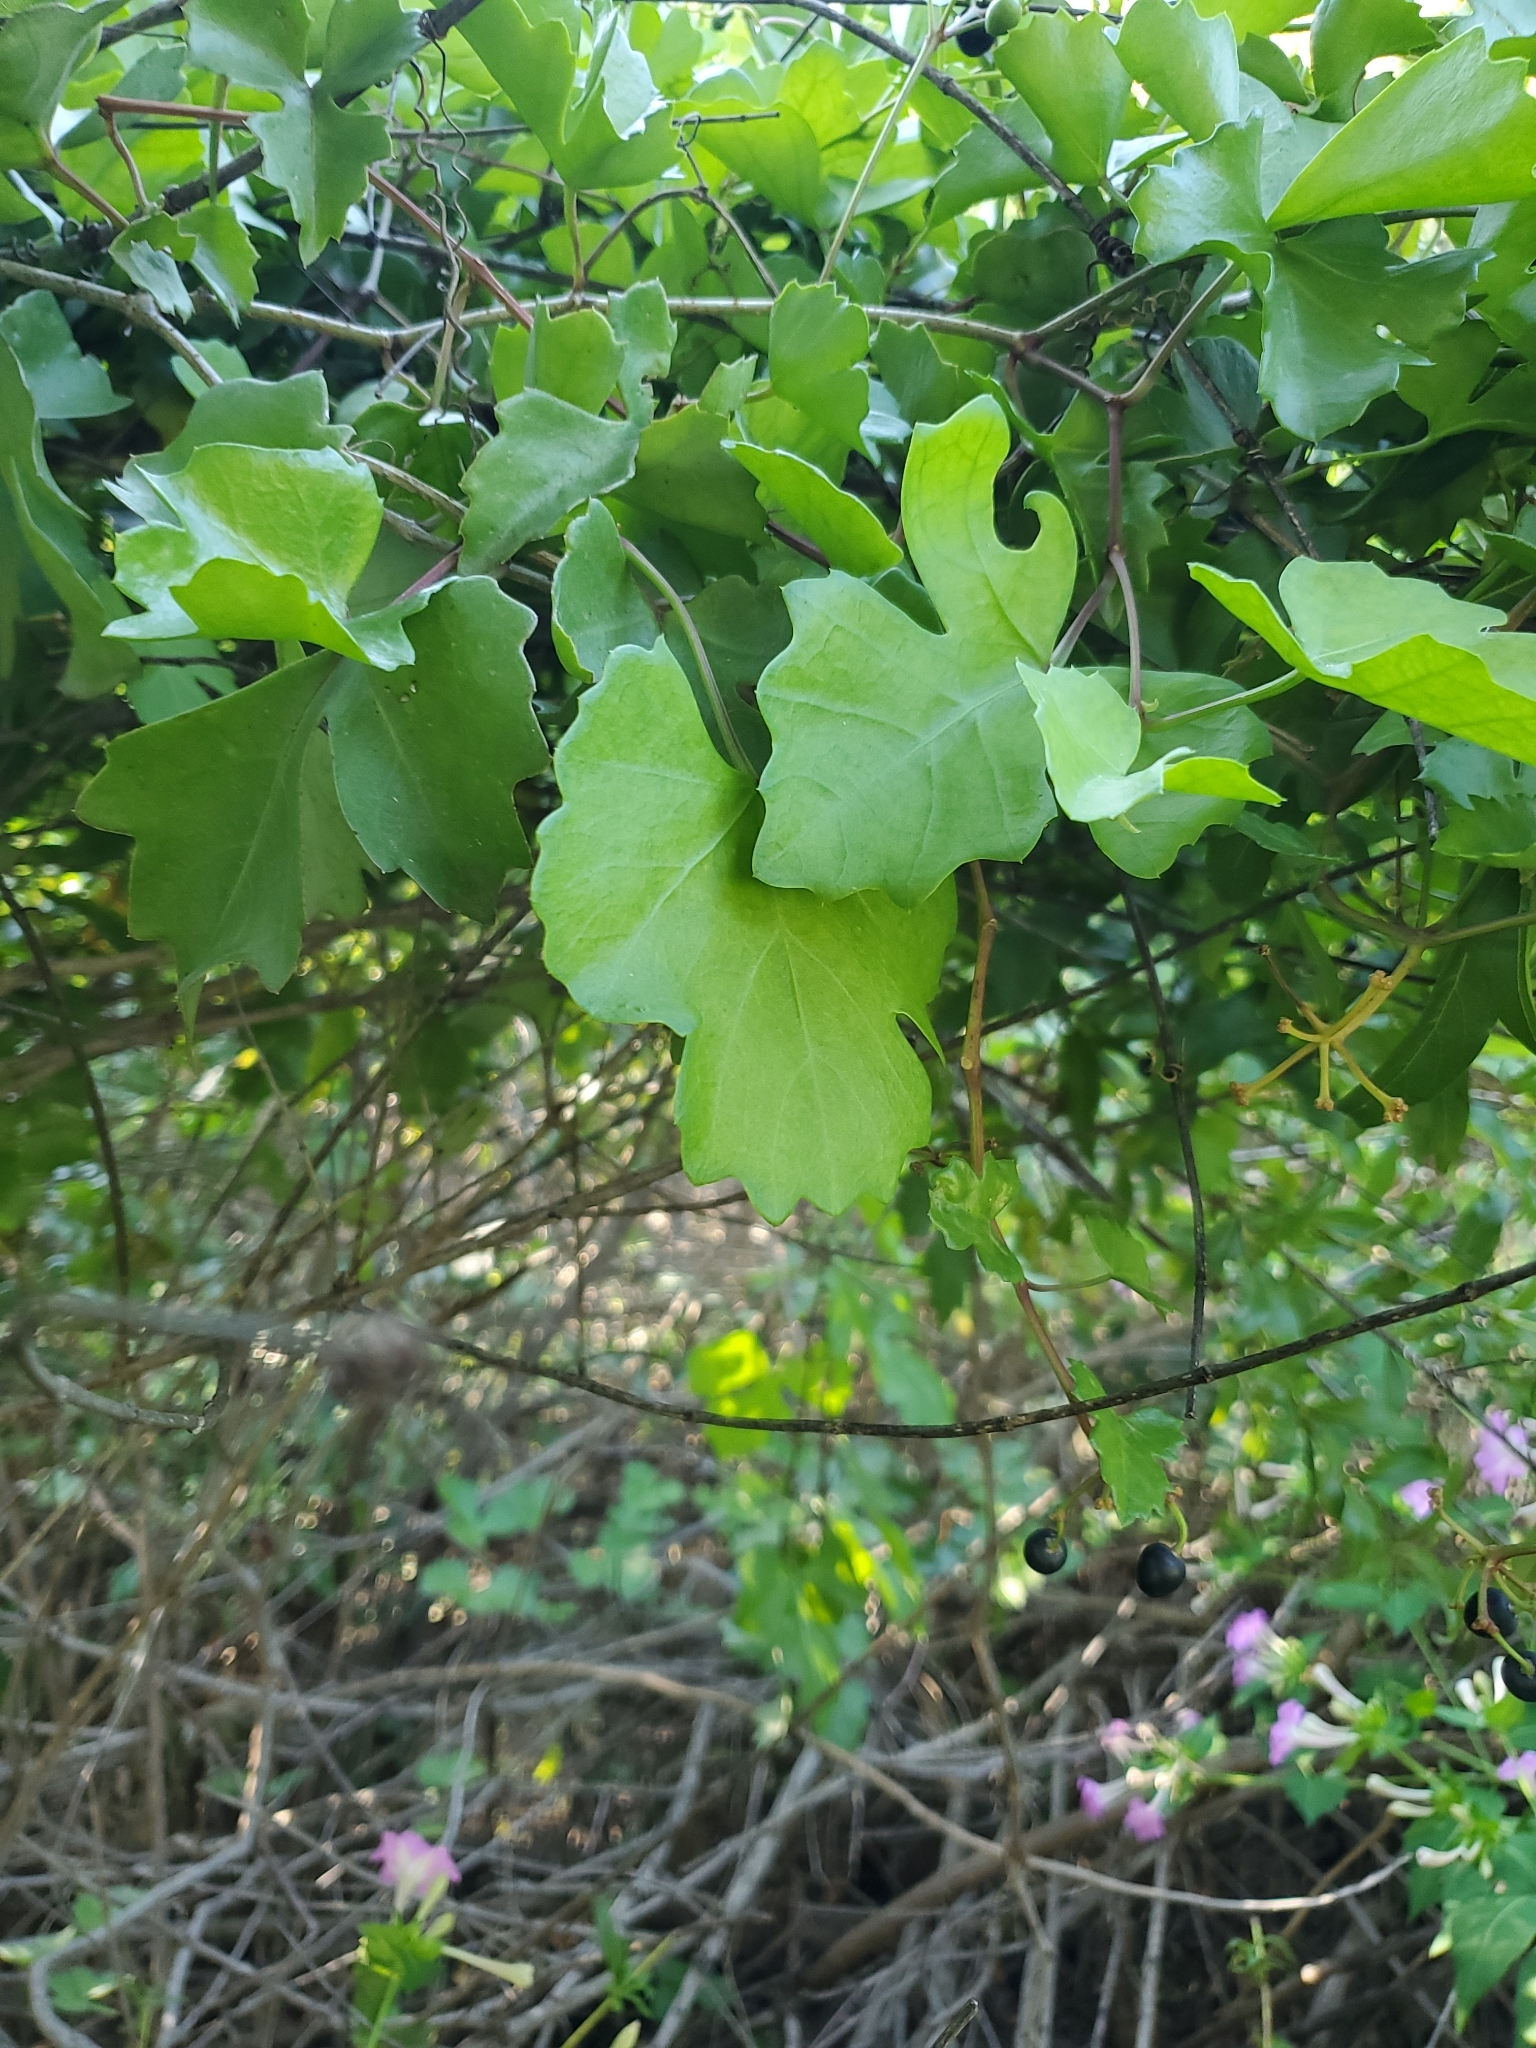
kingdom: Plantae
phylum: Tracheophyta
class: Magnoliopsida
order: Vitales
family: Vitaceae
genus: Cissus
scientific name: Cissus trifoliata
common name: Vine-sorrel
